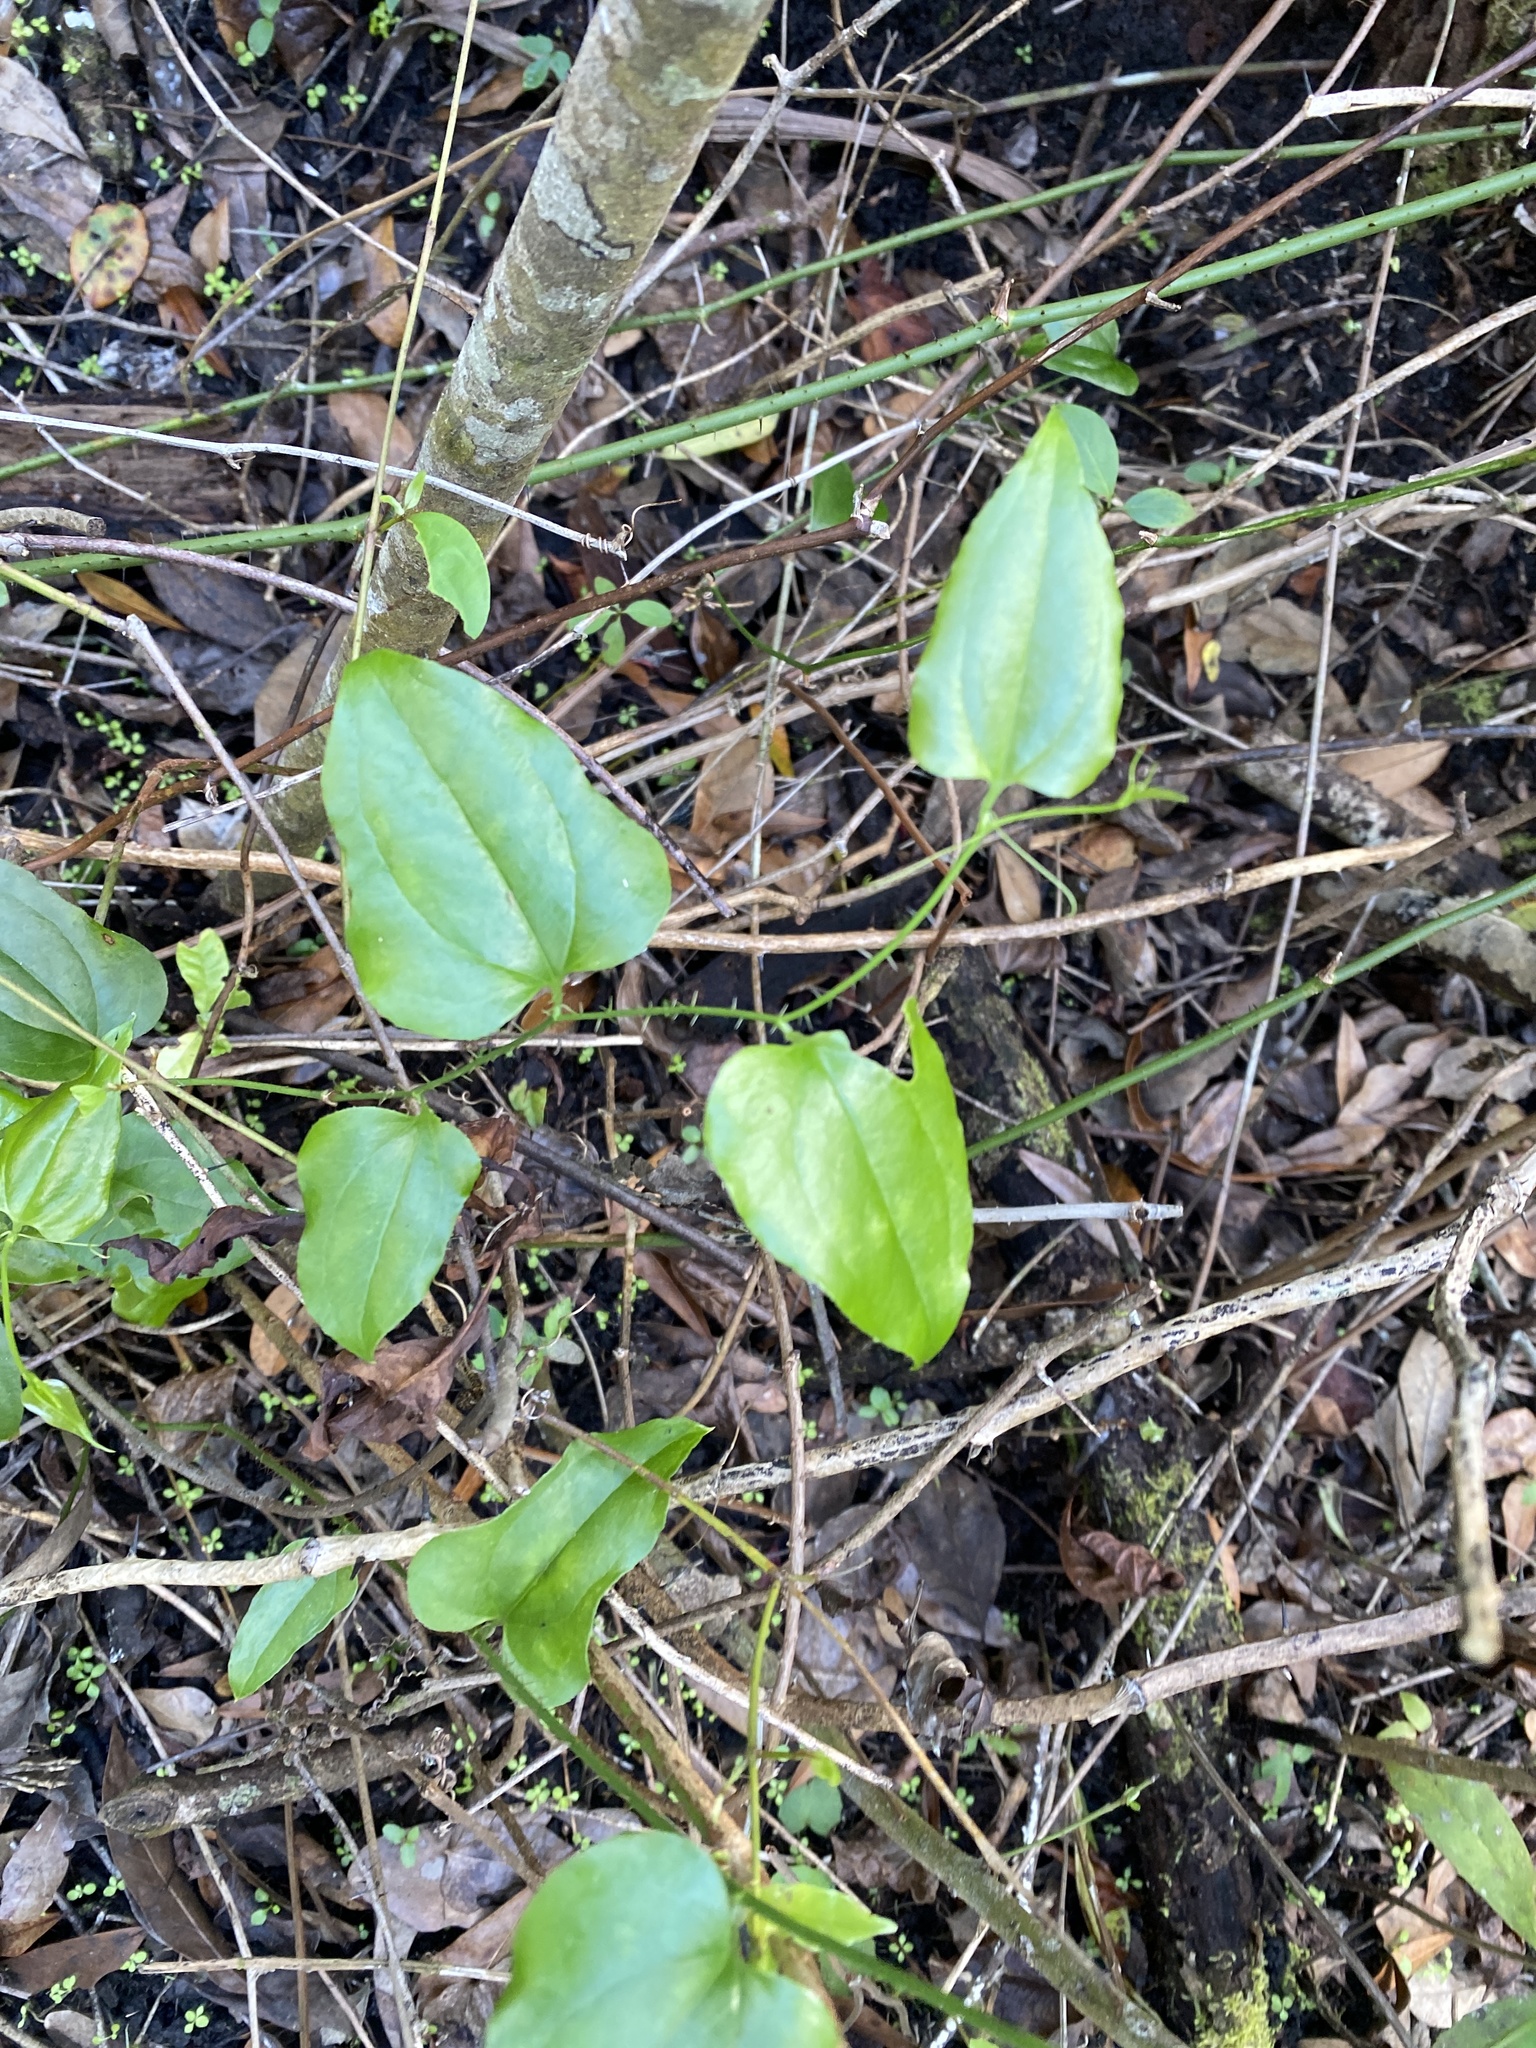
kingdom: Plantae
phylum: Tracheophyta
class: Liliopsida
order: Liliales
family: Smilacaceae
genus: Smilax
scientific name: Smilax tamnoides
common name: Hellfetter
